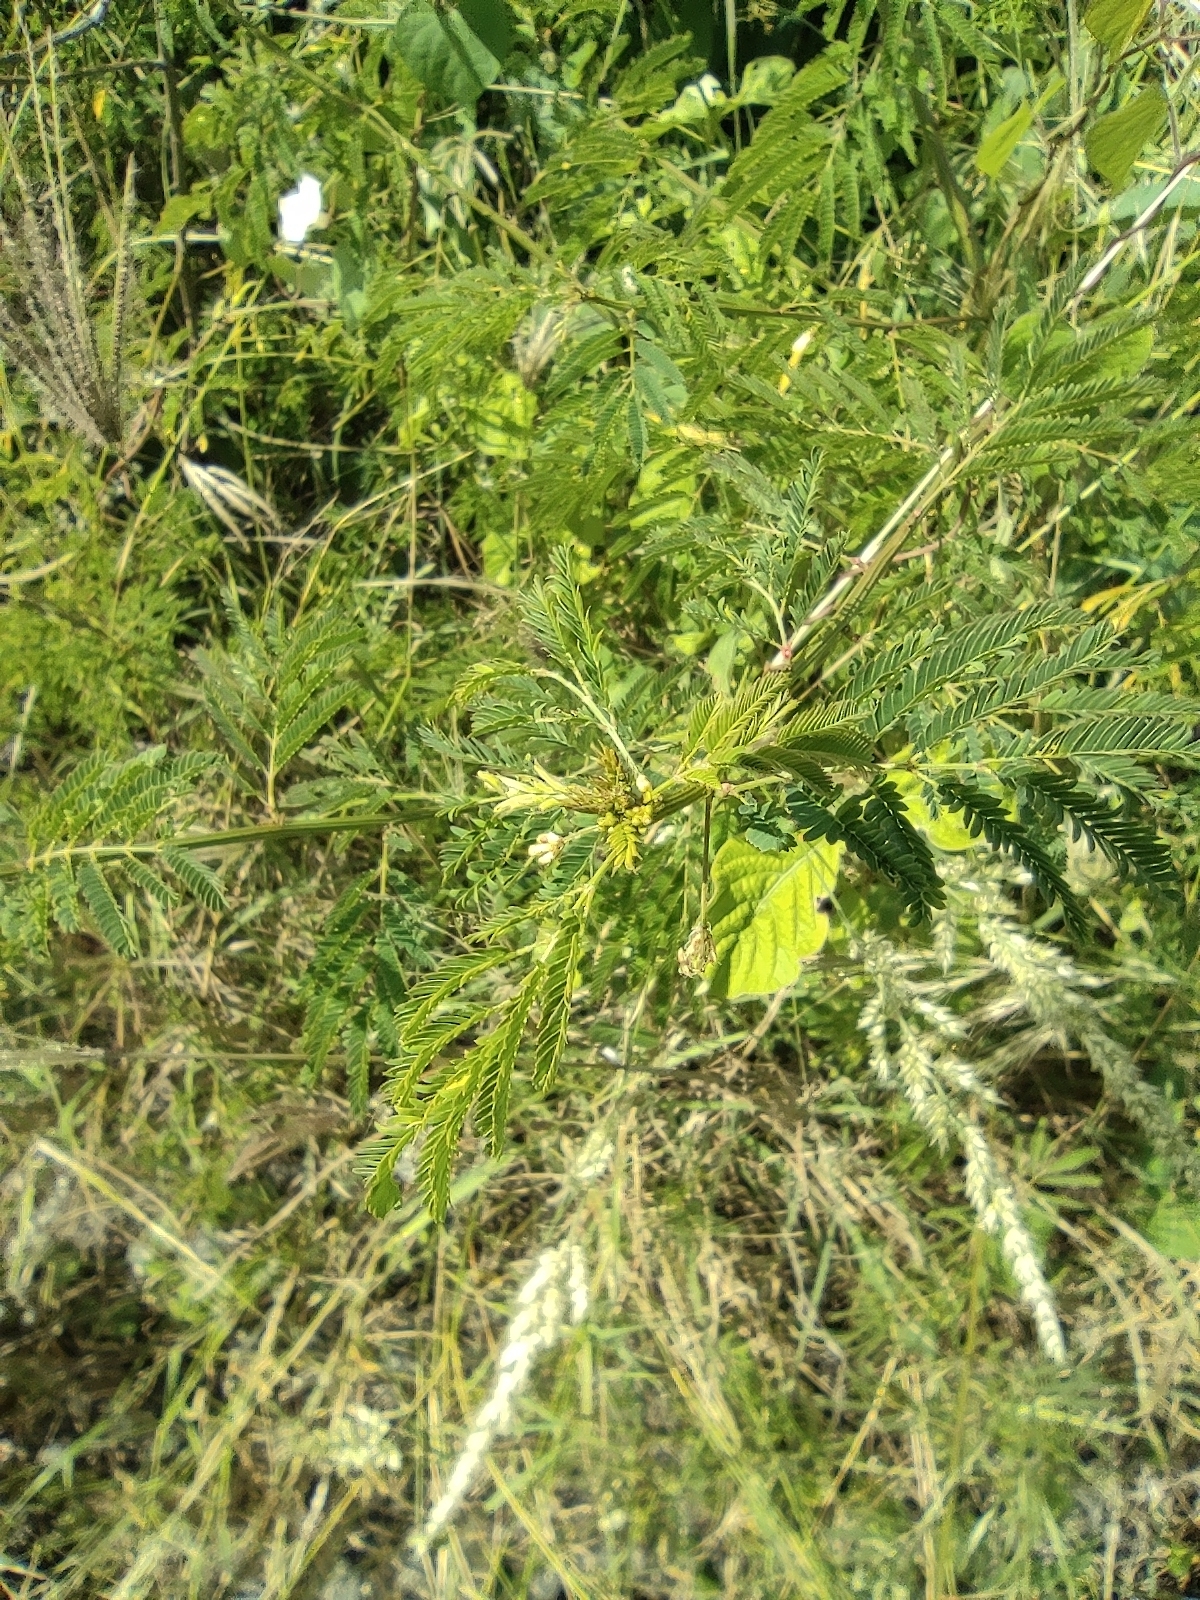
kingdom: Plantae
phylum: Tracheophyta
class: Magnoliopsida
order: Fabales
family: Fabaceae
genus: Desmanthus
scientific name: Desmanthus virgatus
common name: Wild tantan
